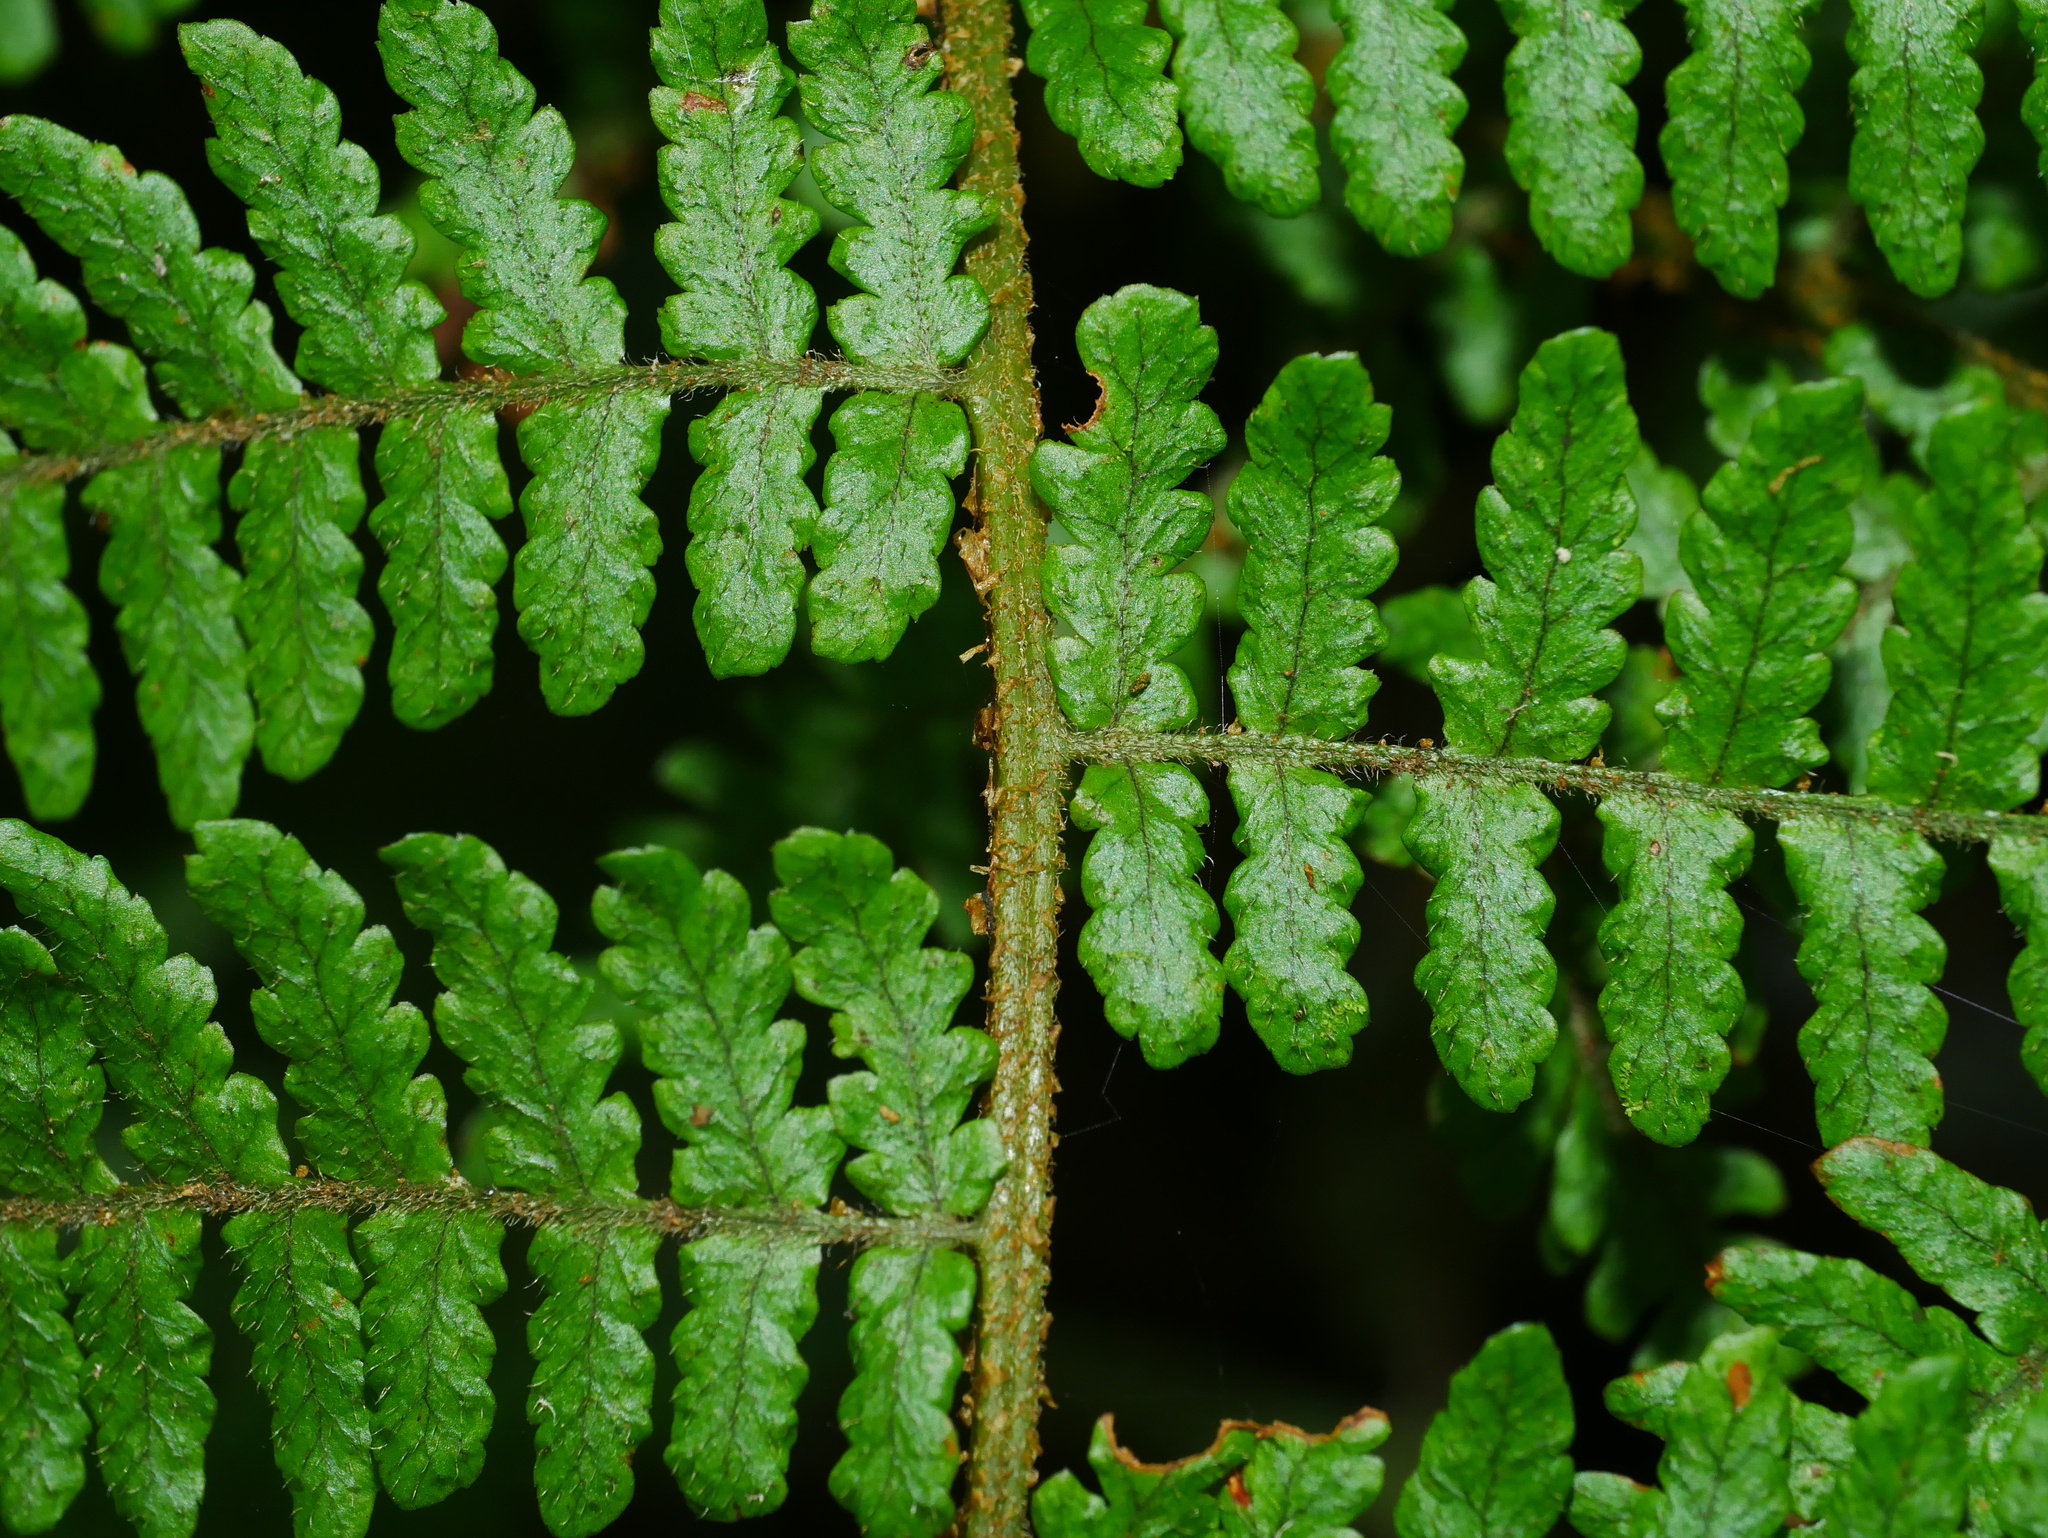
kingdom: Plantae
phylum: Tracheophyta
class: Polypodiopsida
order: Polypodiales
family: Dryopteridaceae
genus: Dryopteris
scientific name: Dryopteris kawakamii
